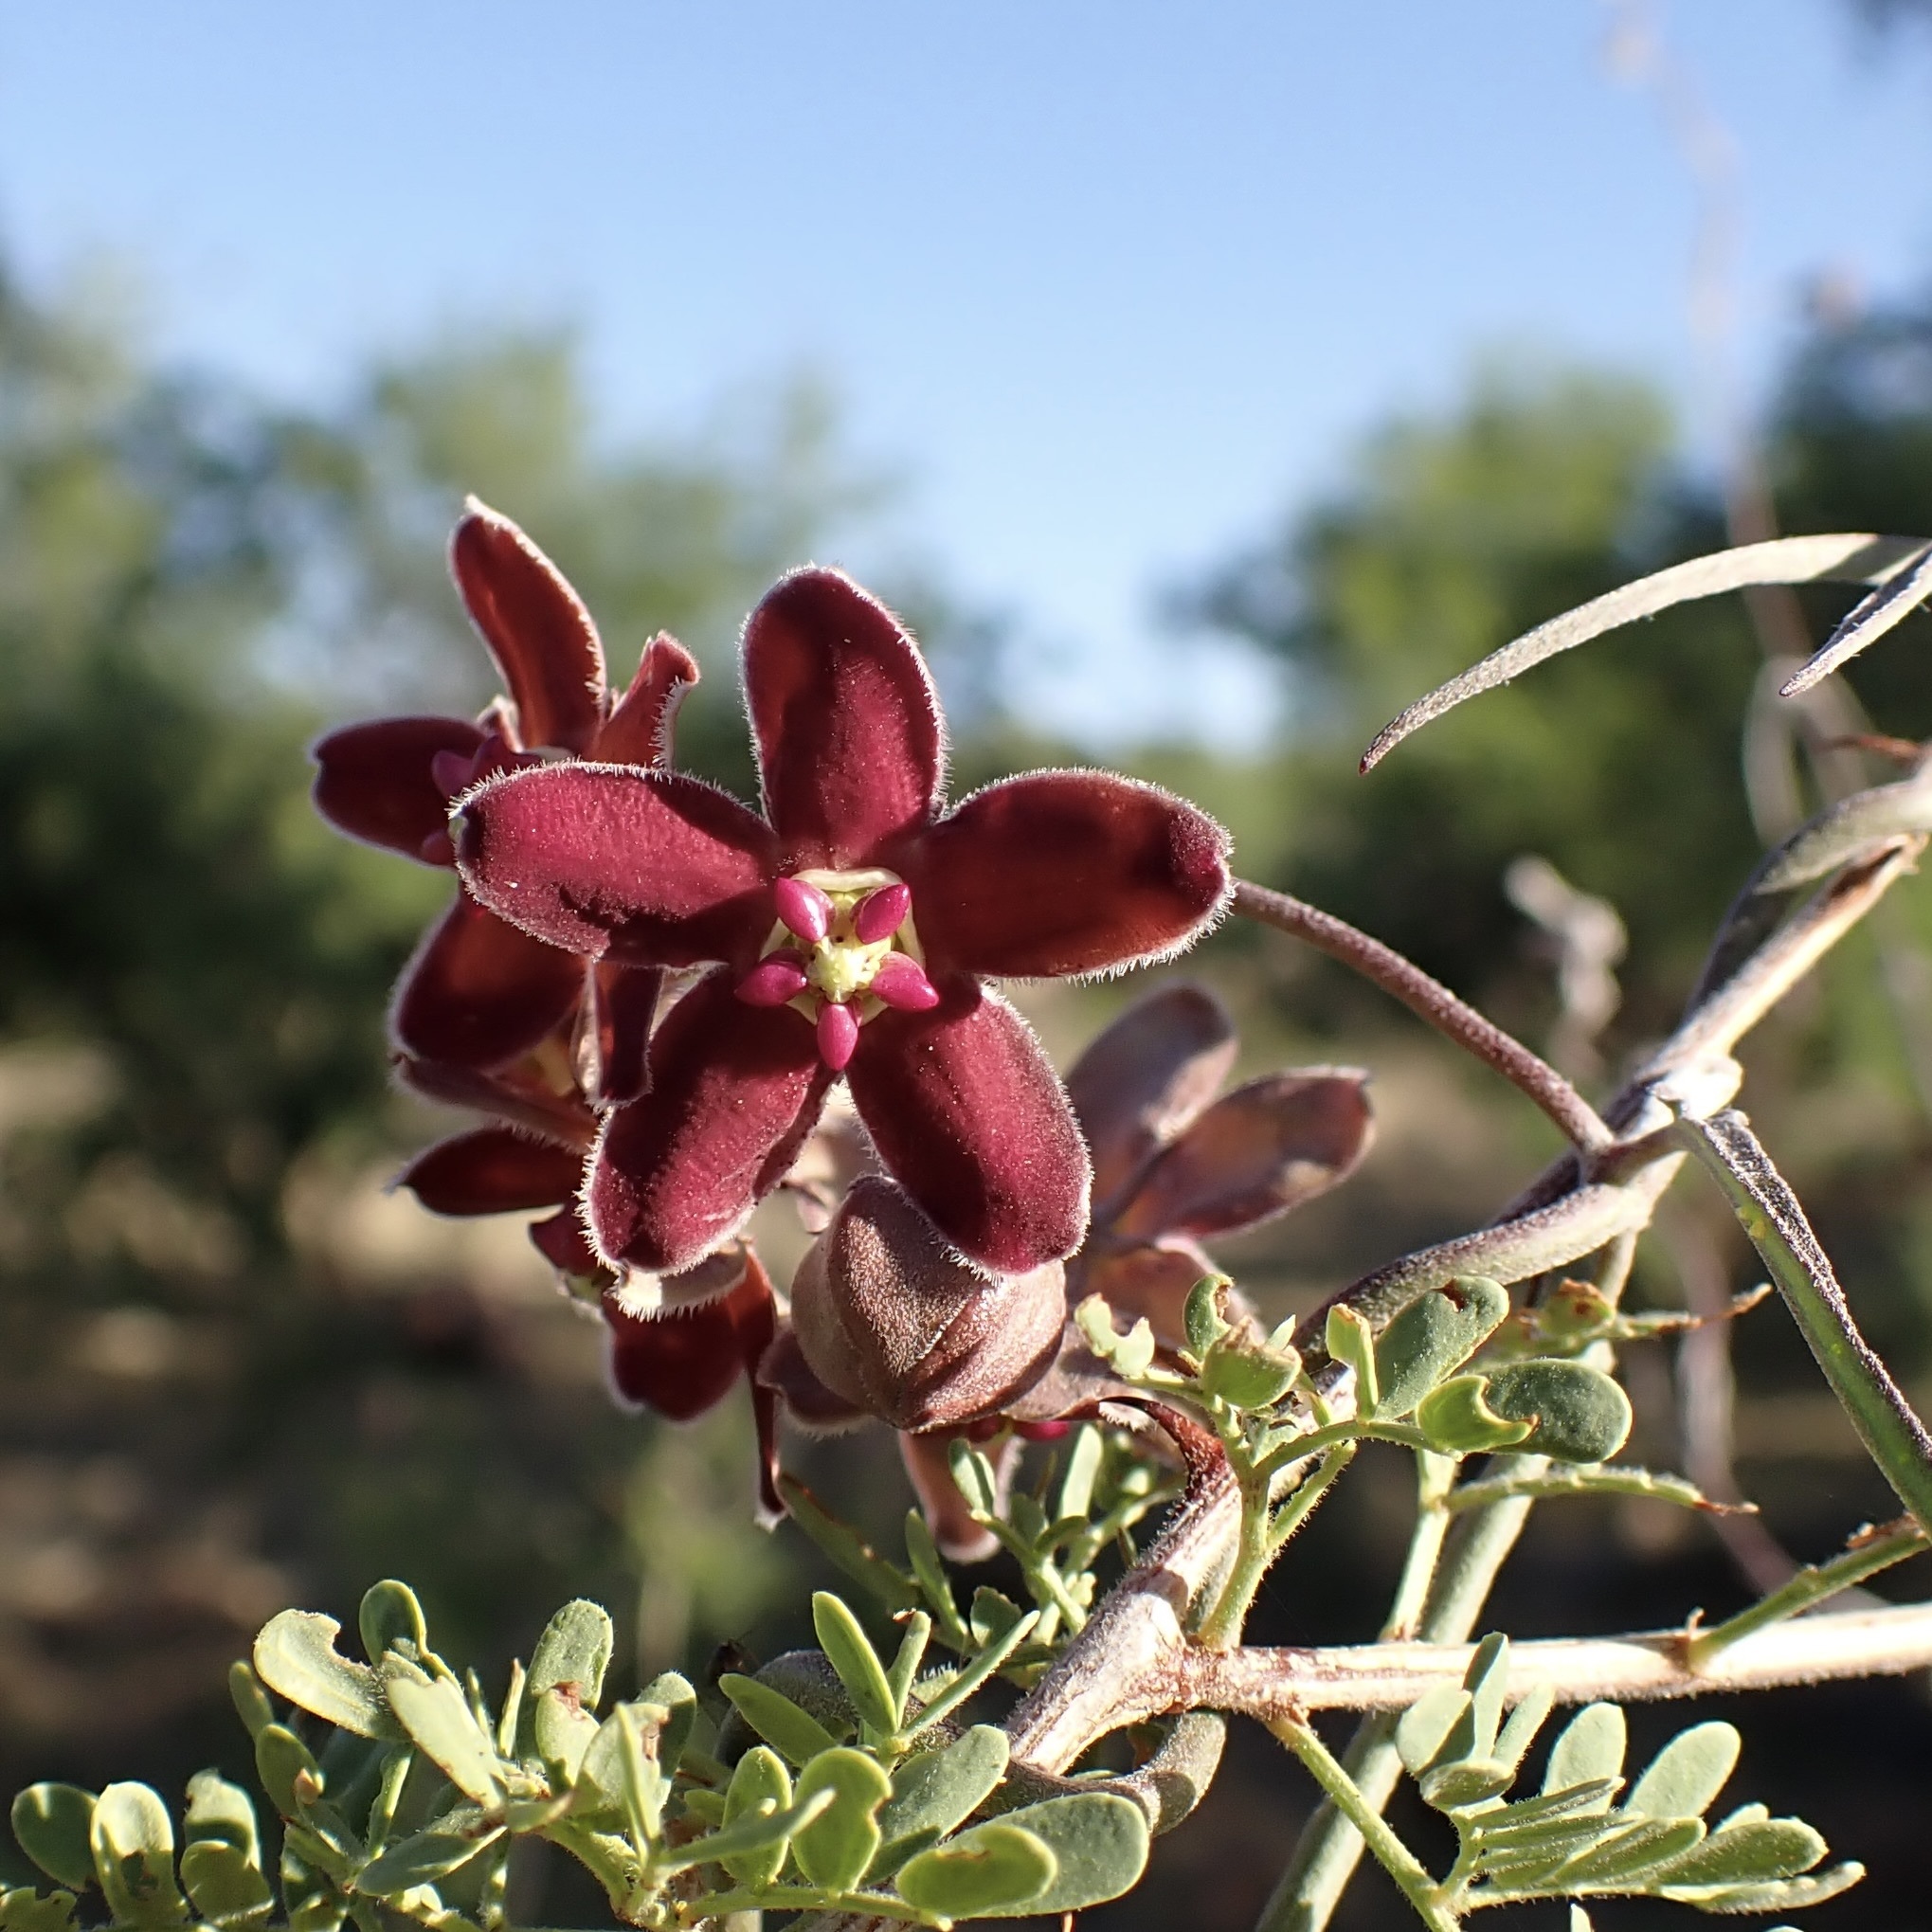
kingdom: Plantae
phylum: Tracheophyta
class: Magnoliopsida
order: Gentianales
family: Apocynaceae
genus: Funastrum
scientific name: Funastrum crispum
